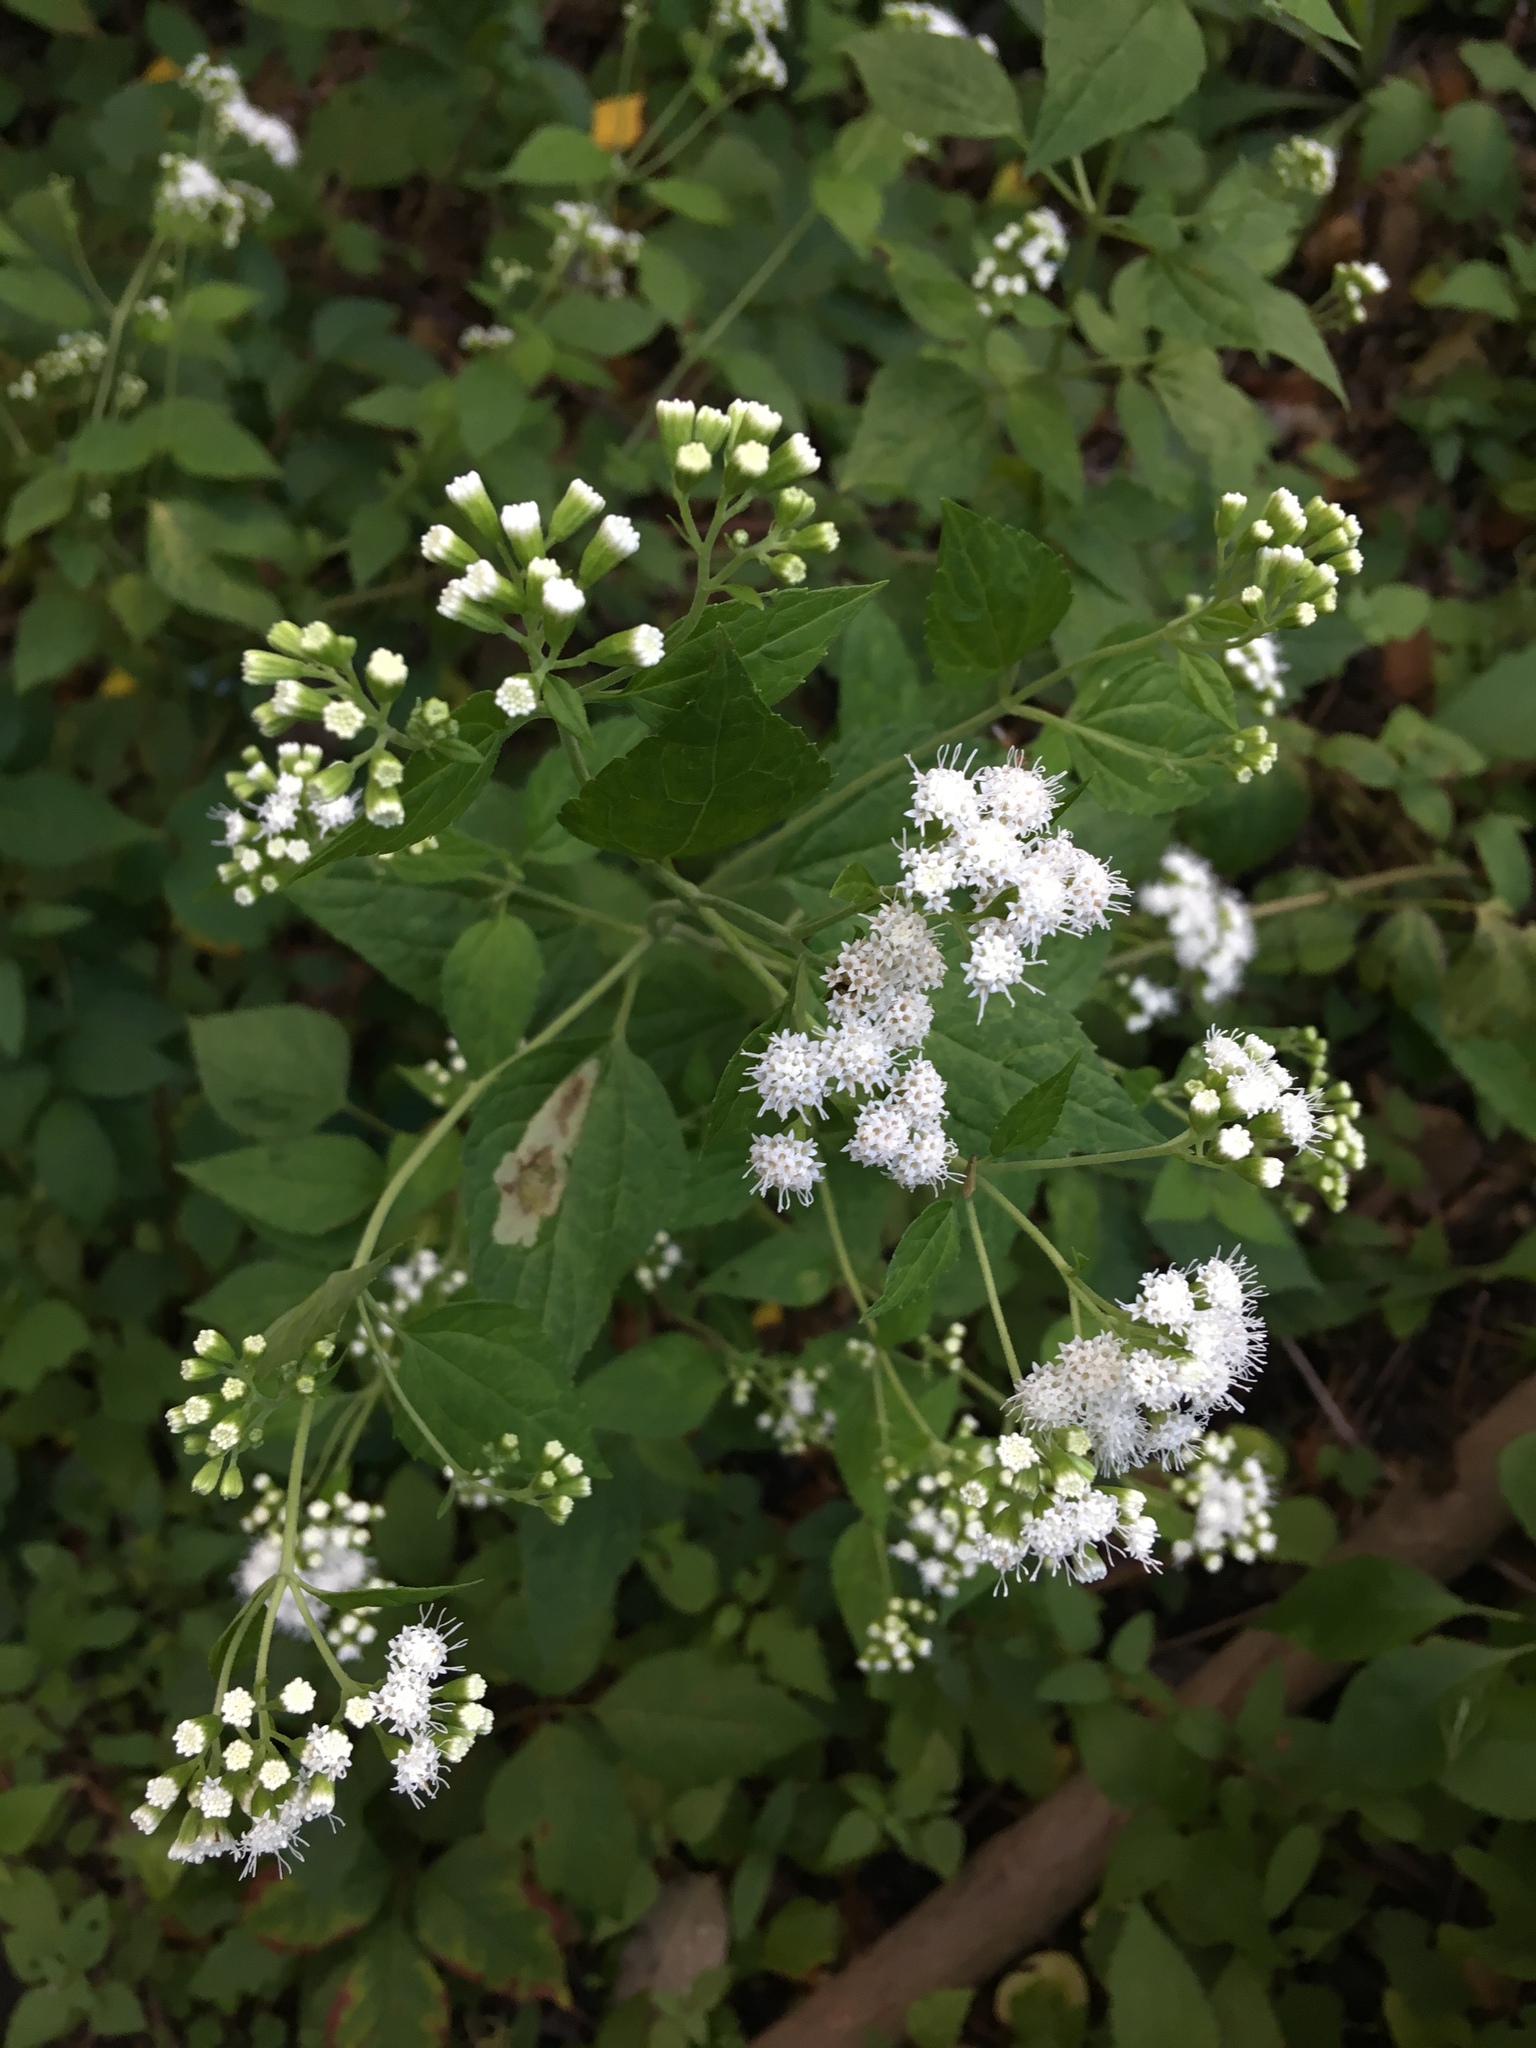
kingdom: Plantae
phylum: Tracheophyta
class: Magnoliopsida
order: Asterales
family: Asteraceae
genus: Ageratina
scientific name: Ageratina altissima
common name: White snakeroot
